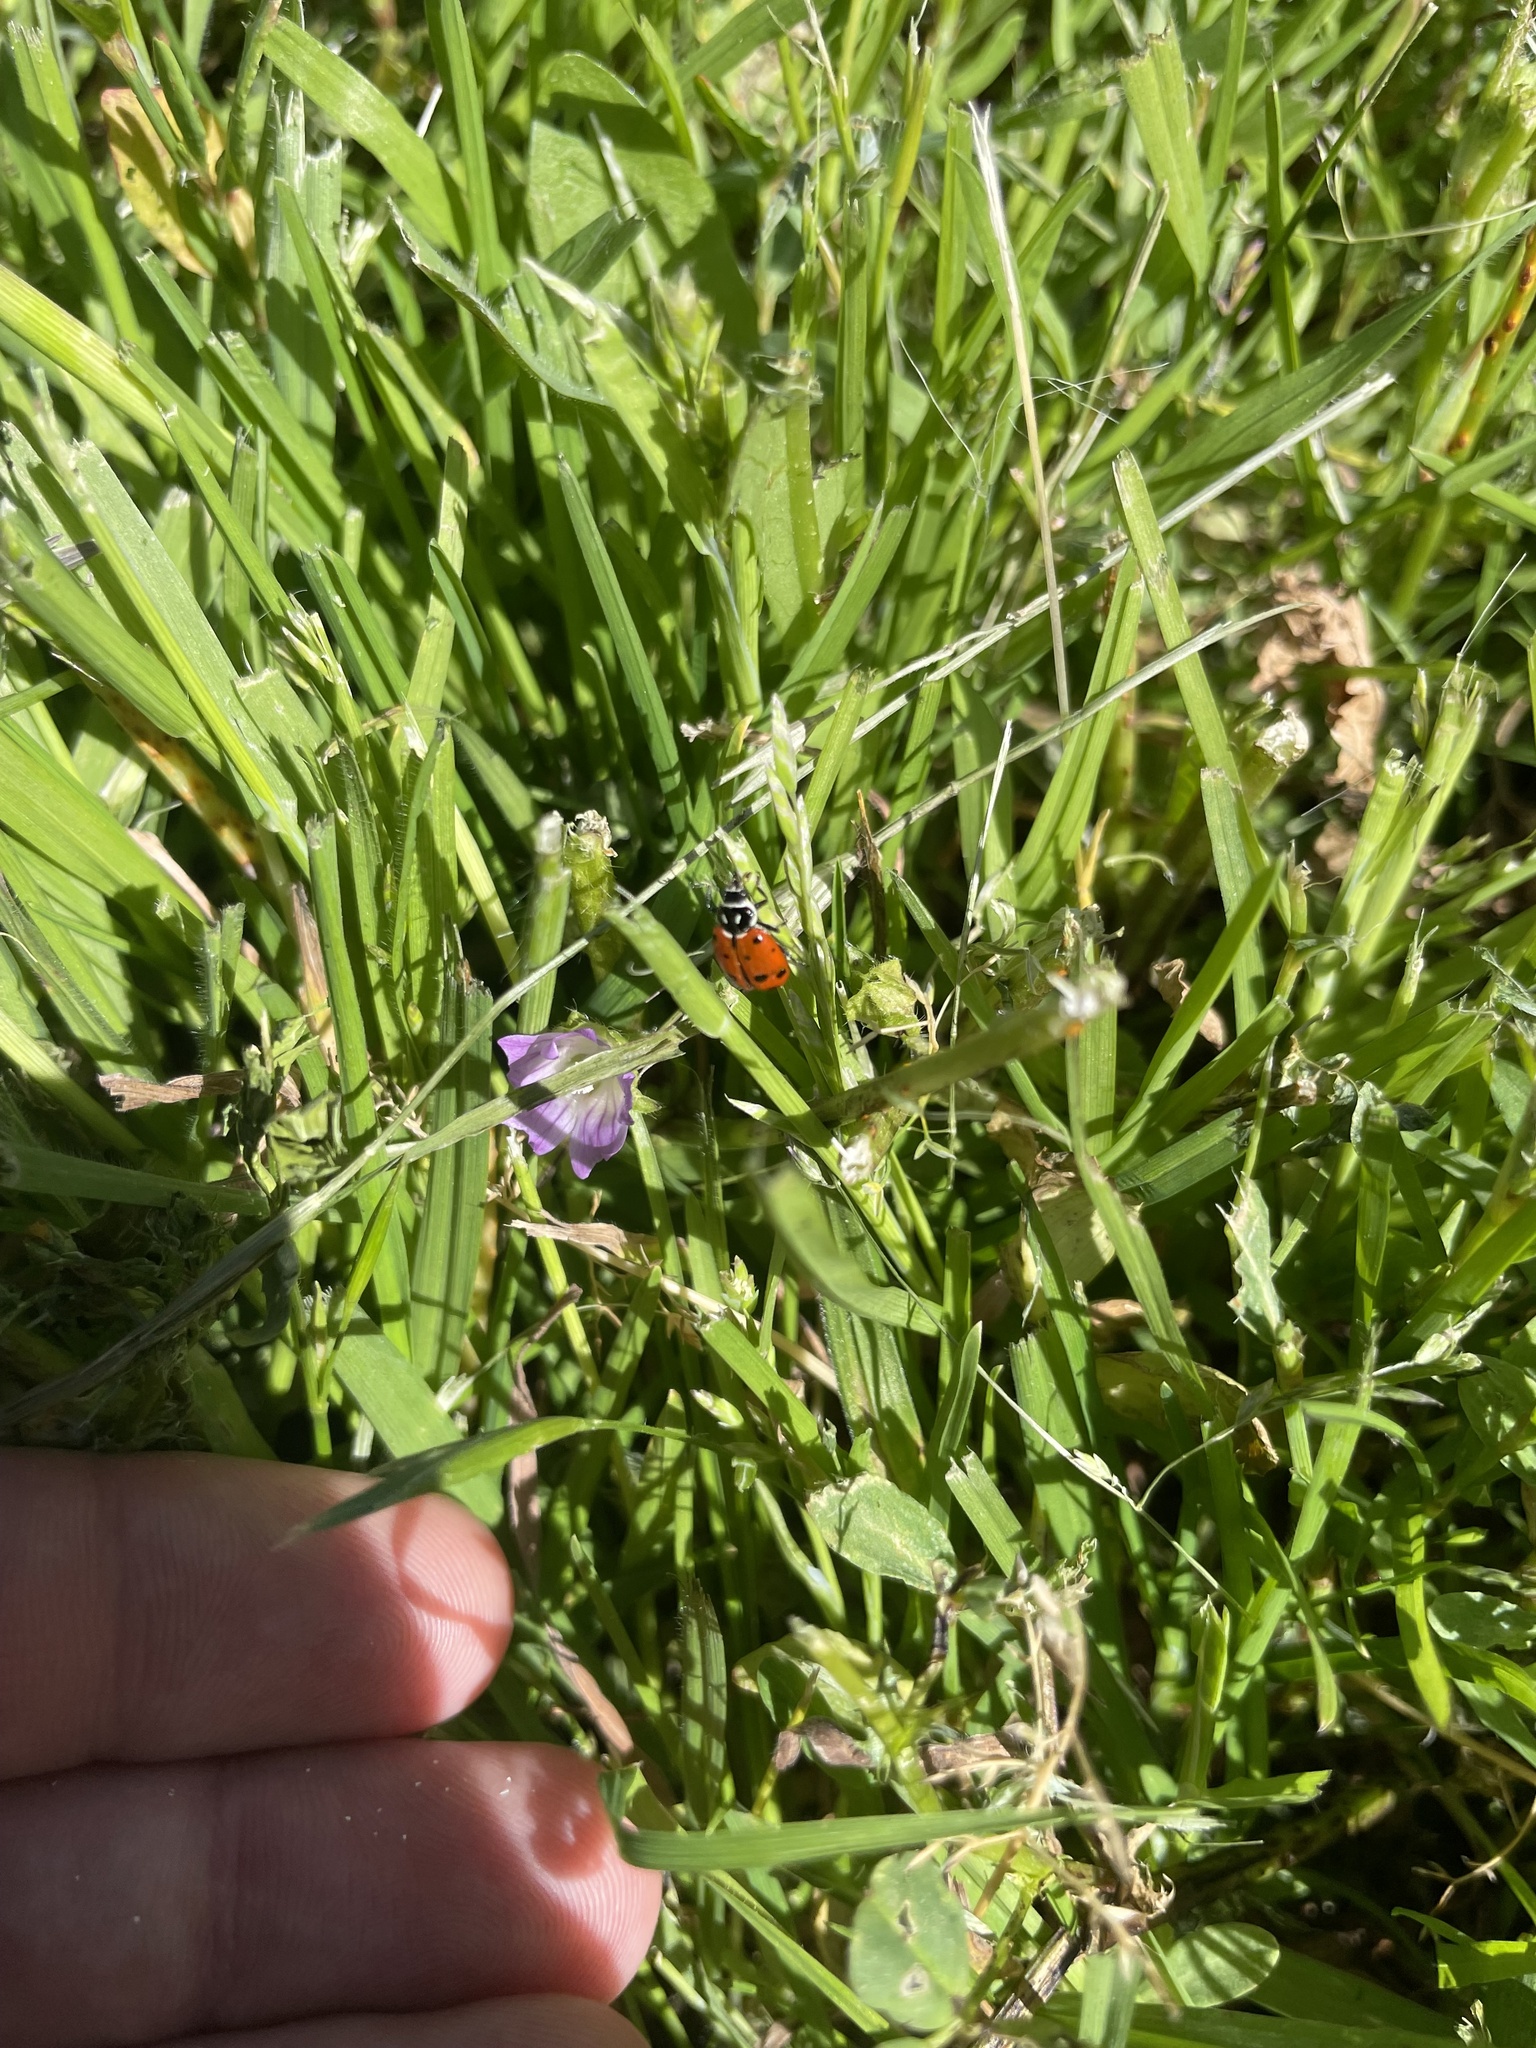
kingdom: Animalia
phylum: Arthropoda
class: Insecta
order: Coleoptera
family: Coccinellidae
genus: Hippodamia
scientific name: Hippodamia convergens
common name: Convergent lady beetle
